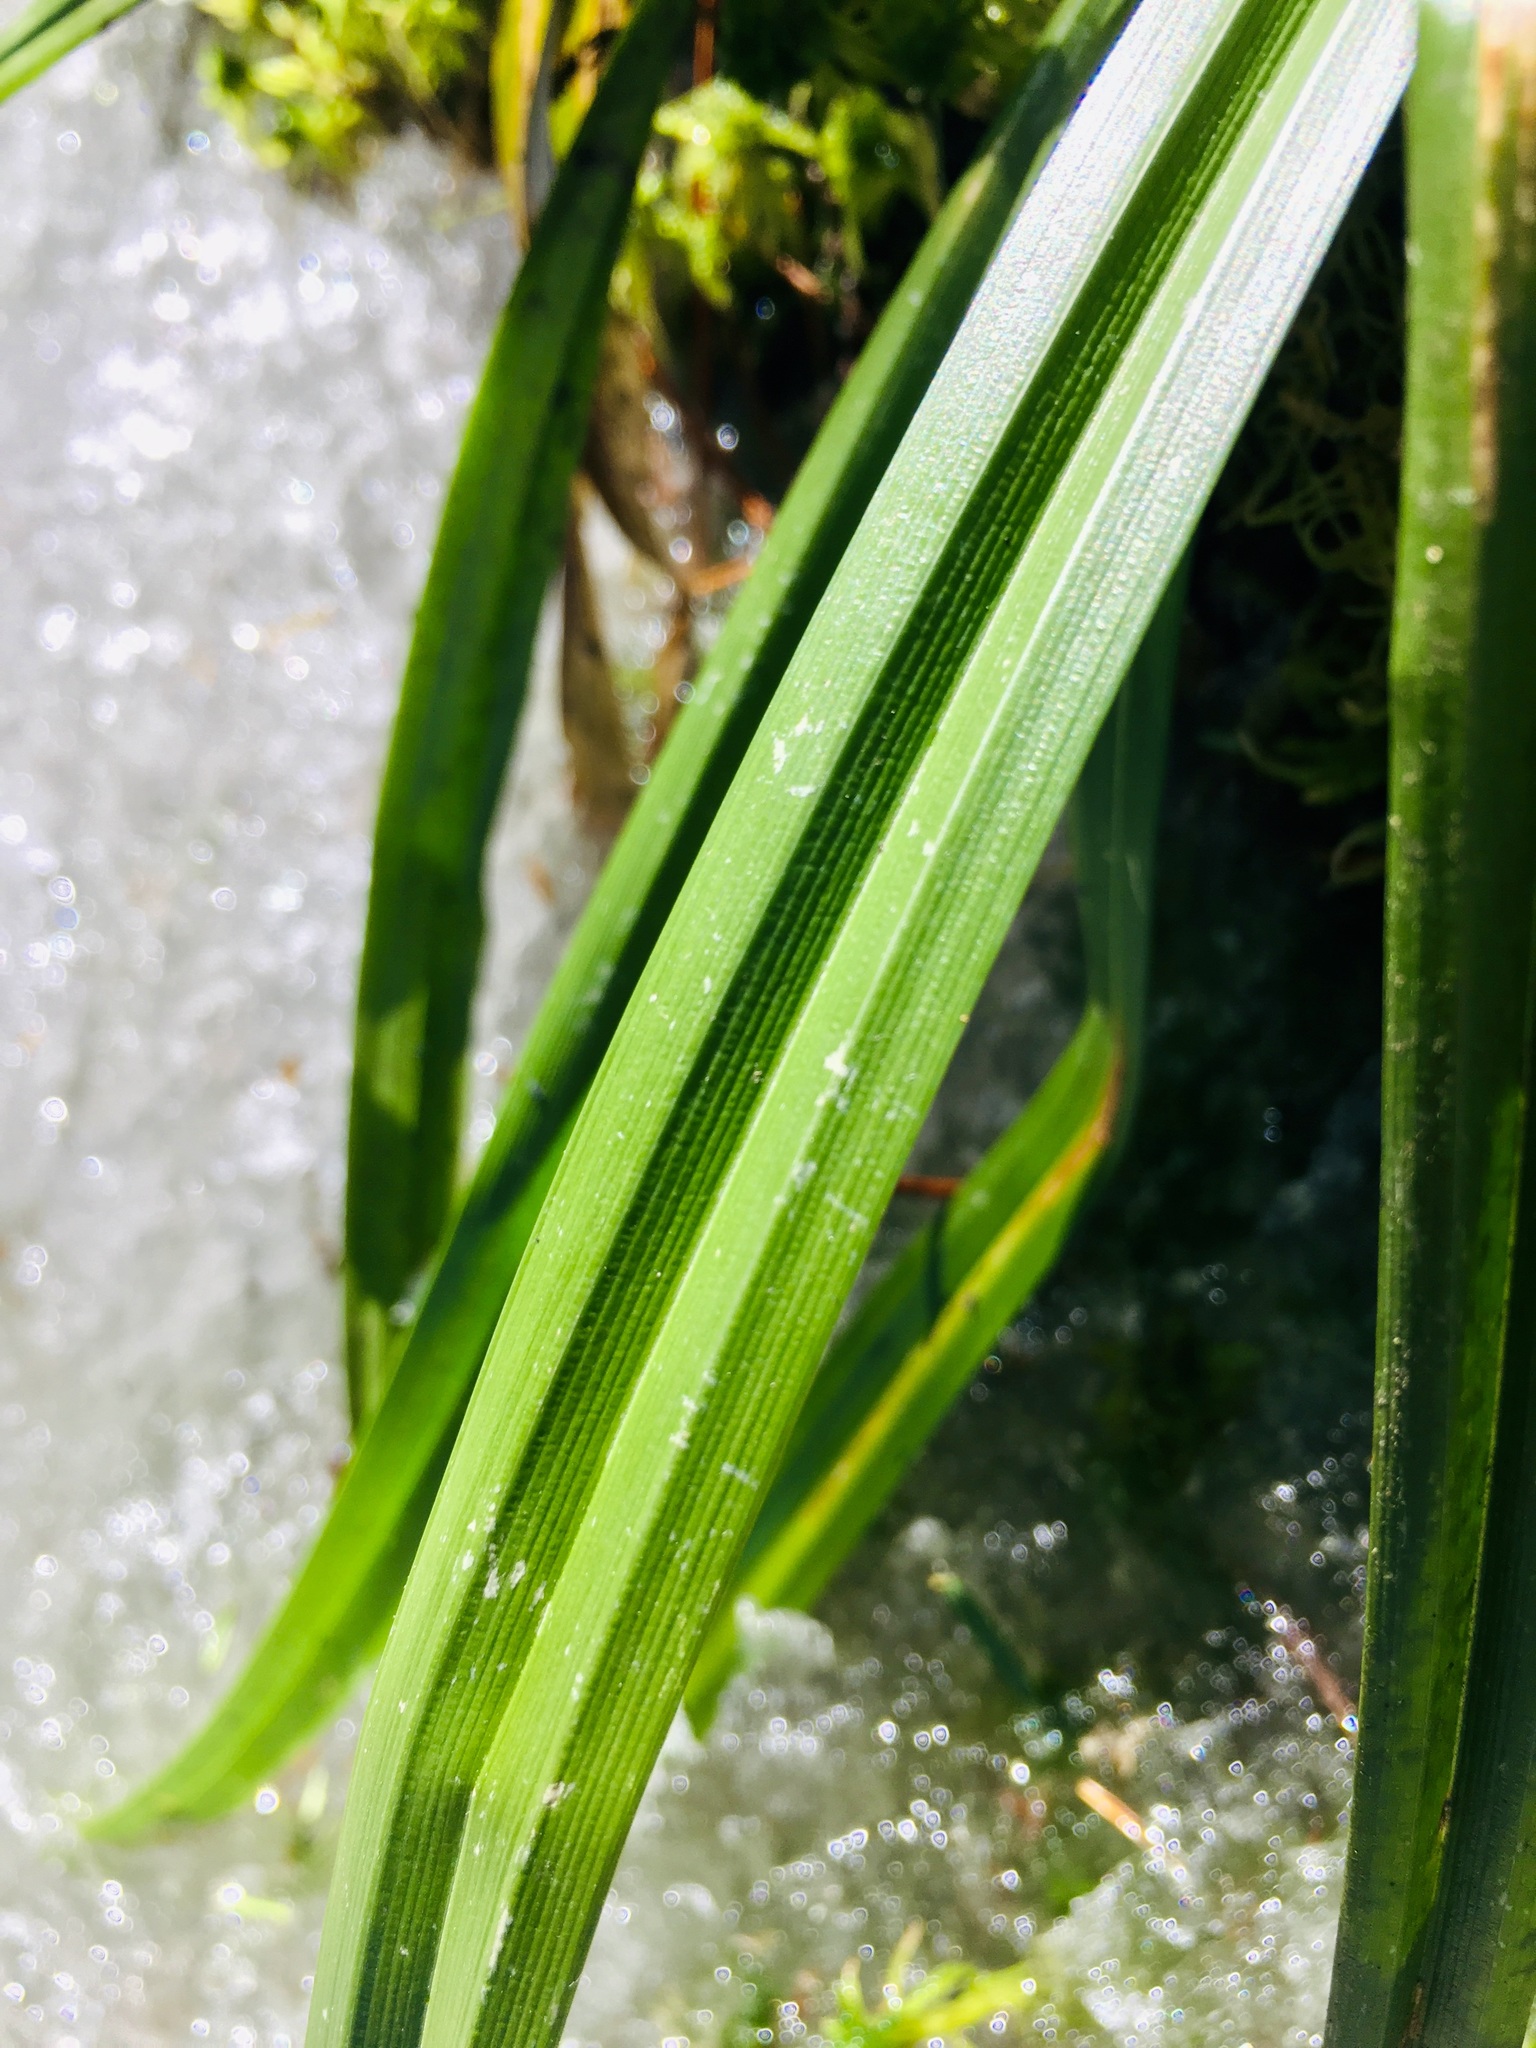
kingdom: Plantae
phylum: Tracheophyta
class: Liliopsida
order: Poales
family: Cyperaceae
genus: Carex
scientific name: Carex folliculata
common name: Northern long sedge
